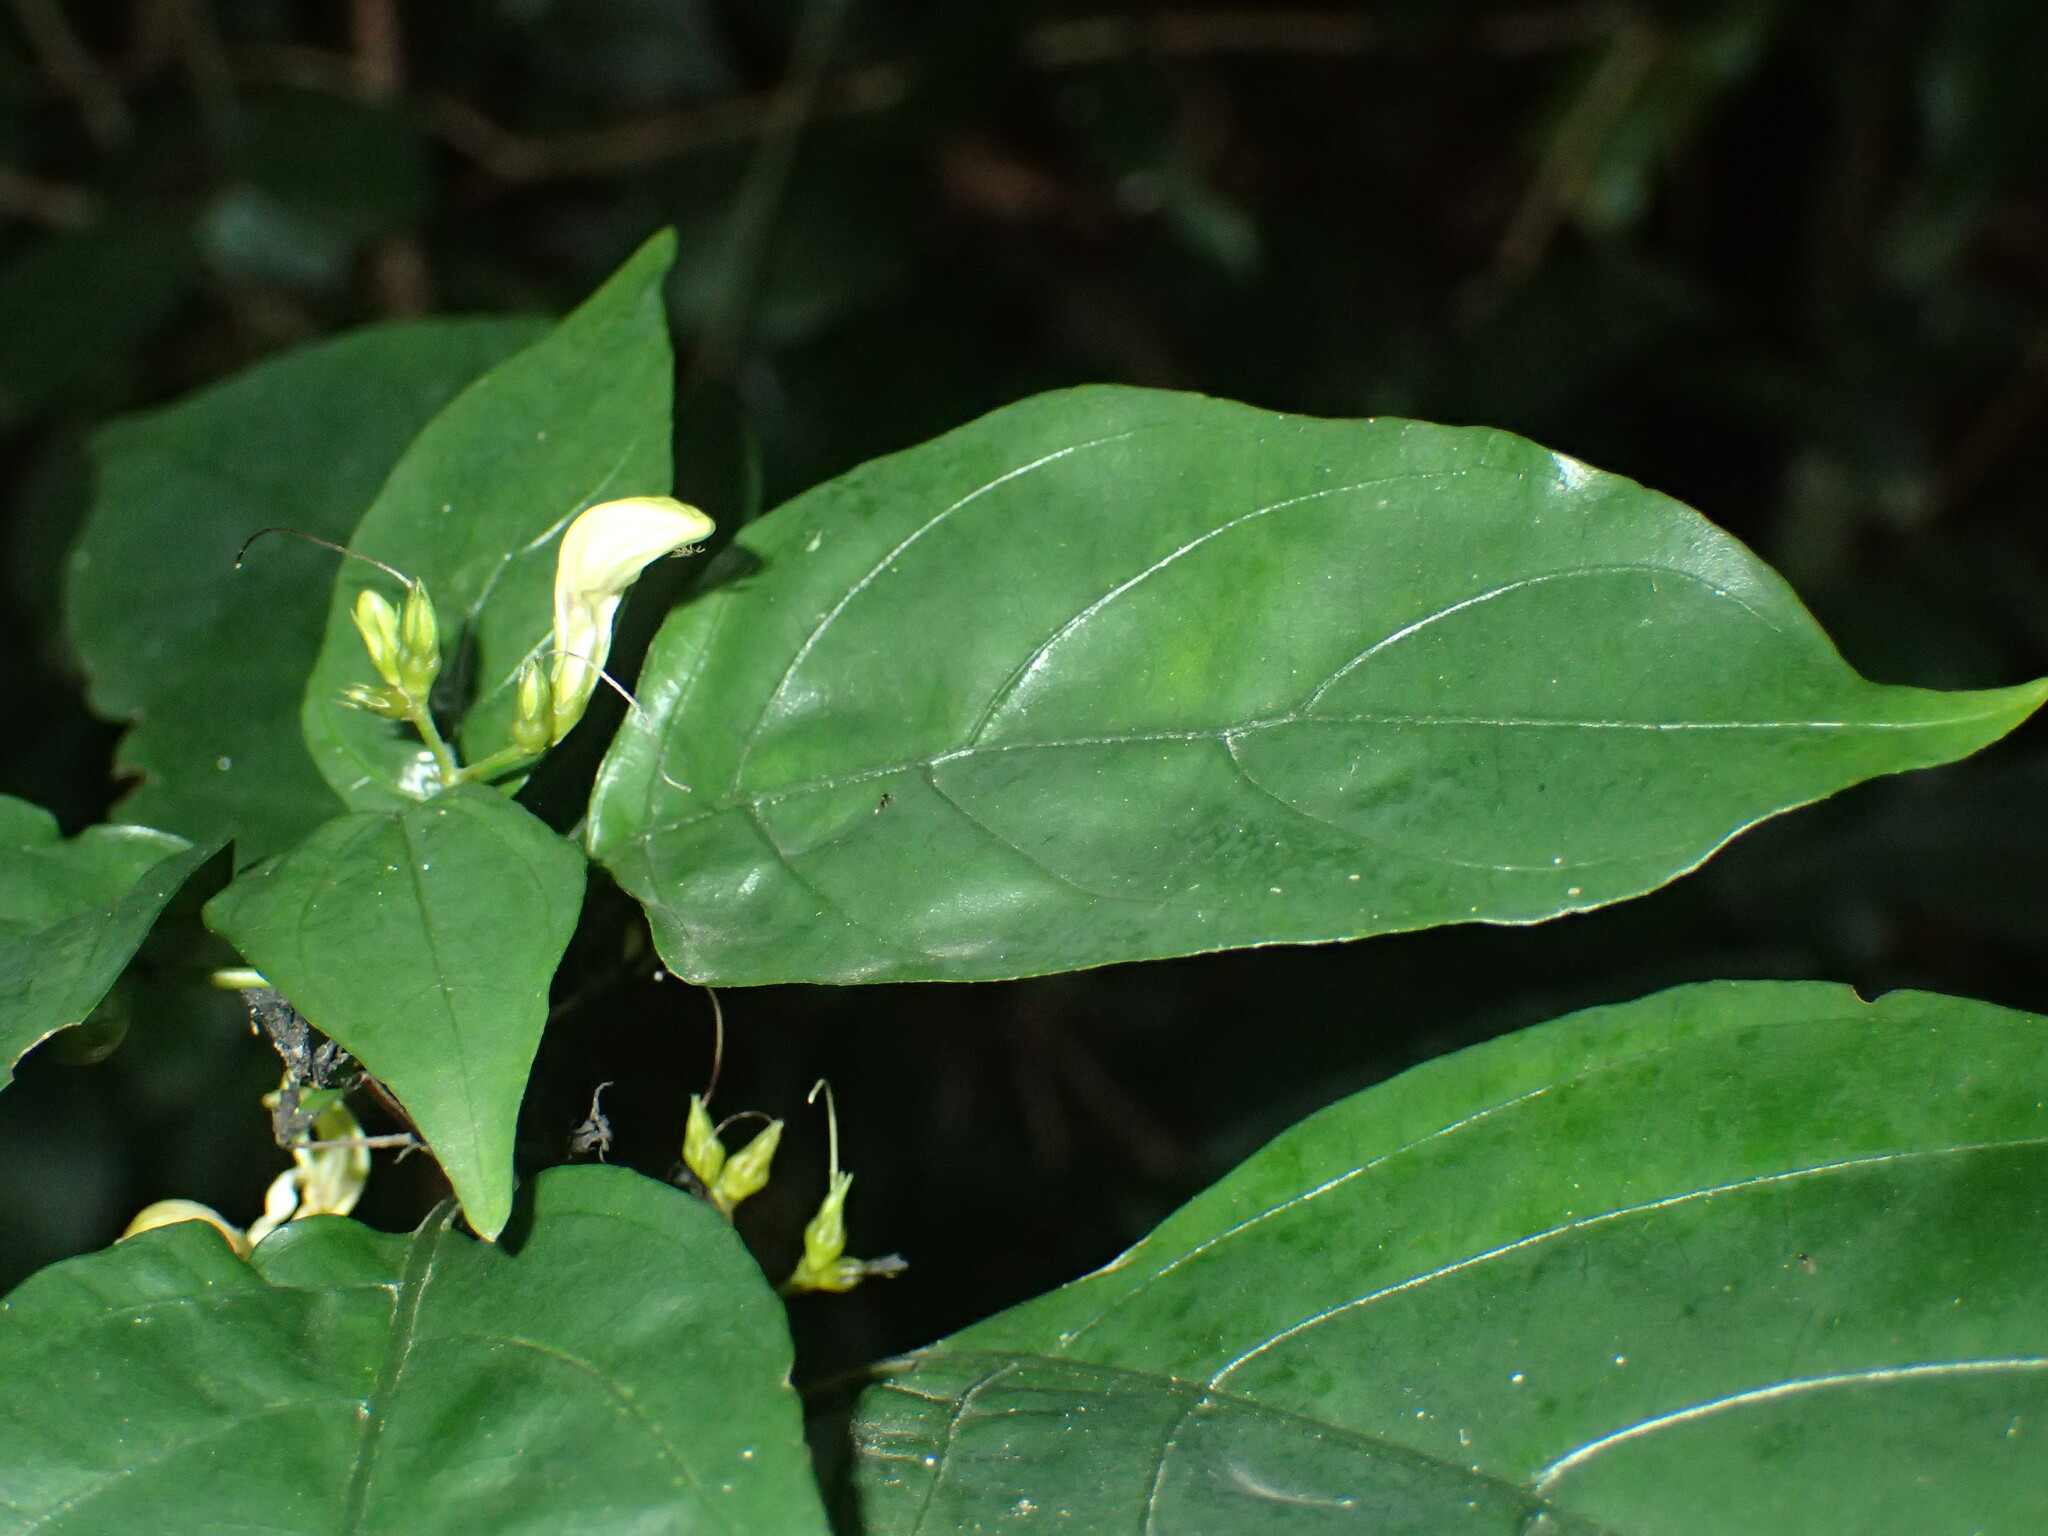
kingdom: Plantae
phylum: Tracheophyta
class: Magnoliopsida
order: Lamiales
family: Acanthaceae
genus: Justicia
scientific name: Justicia campylostemon
